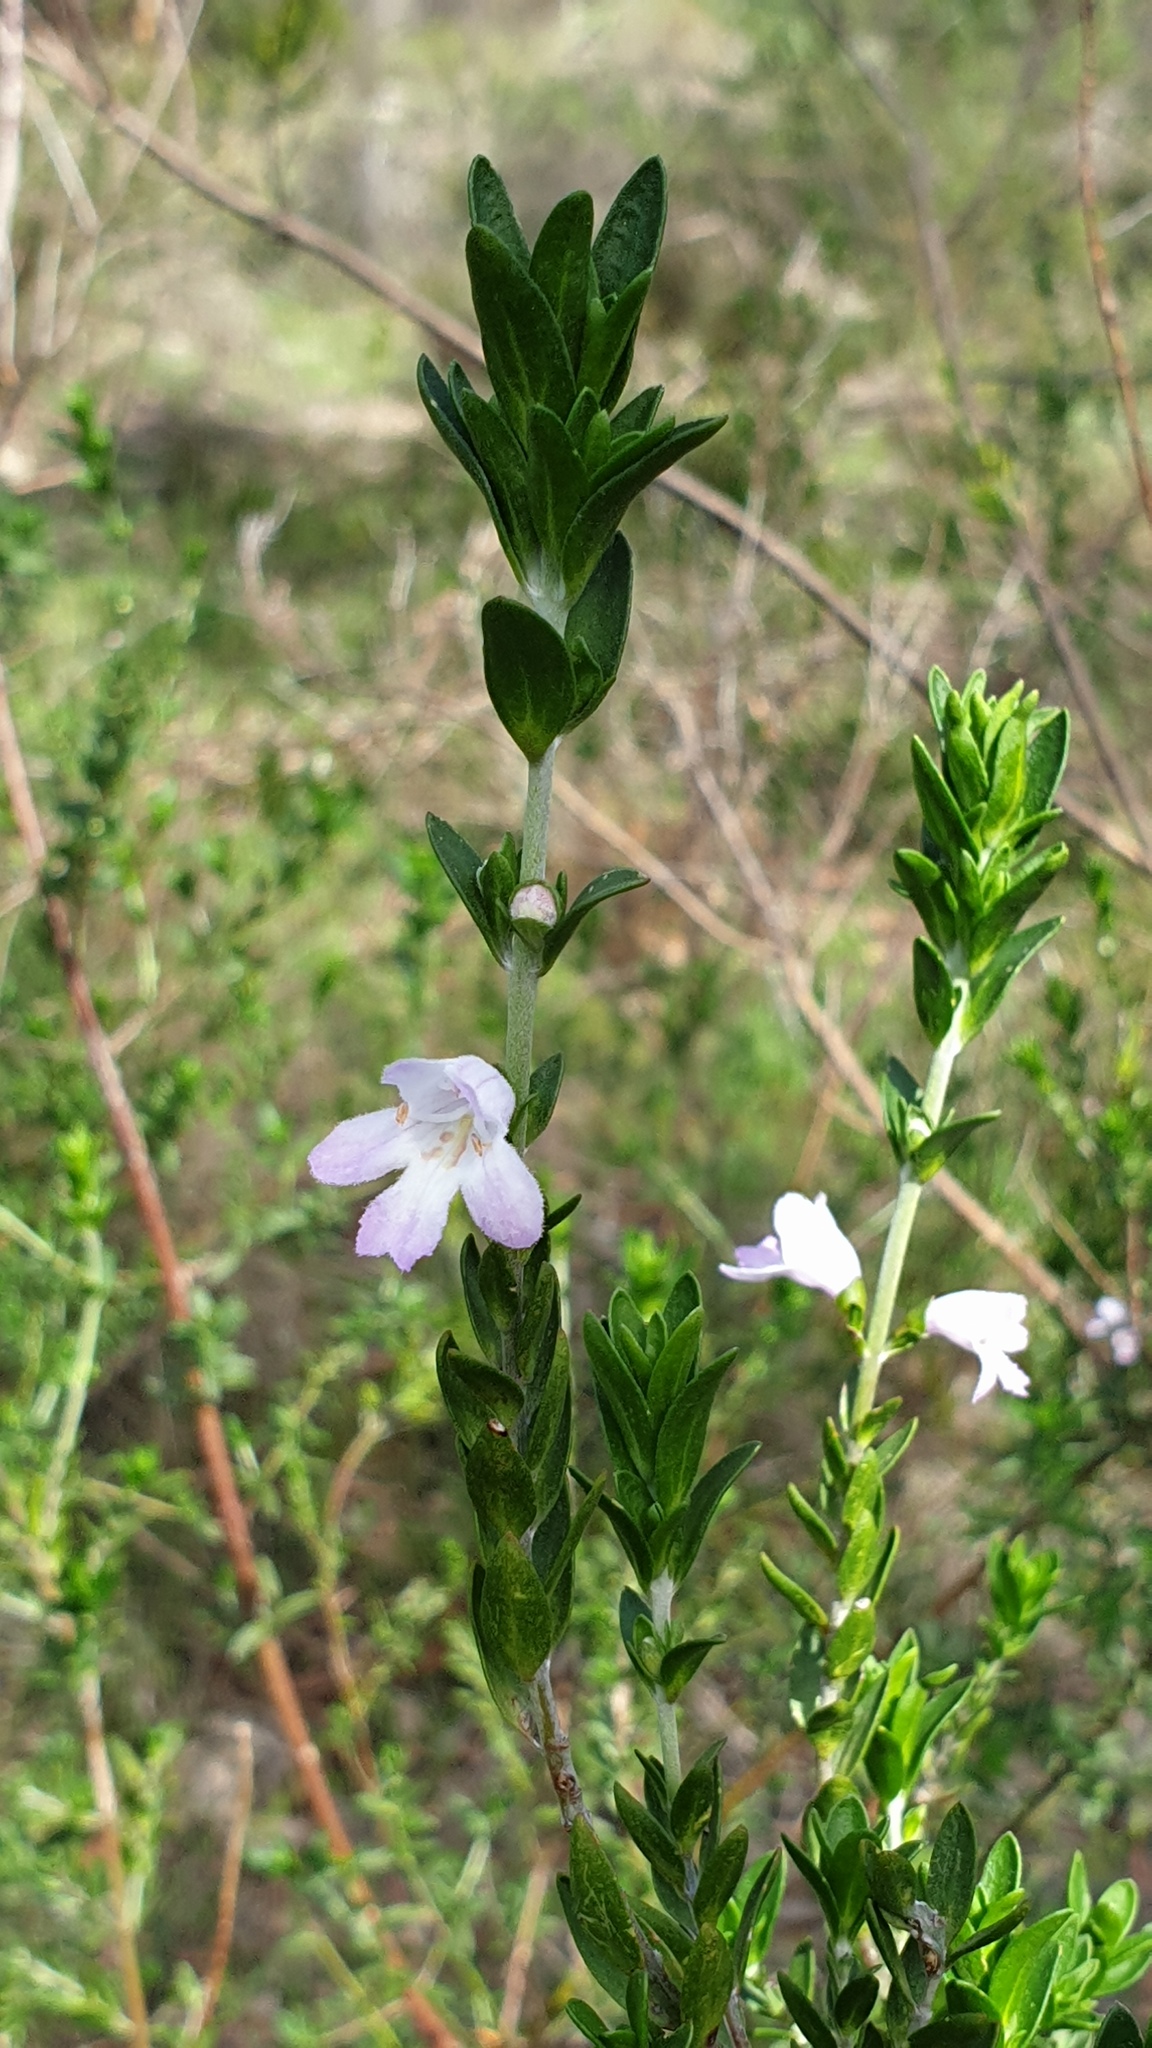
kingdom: Plantae
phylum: Tracheophyta
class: Magnoliopsida
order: Lamiales
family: Lamiaceae
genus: Prostanthera
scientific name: Prostanthera behriana
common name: Downy mintbush
